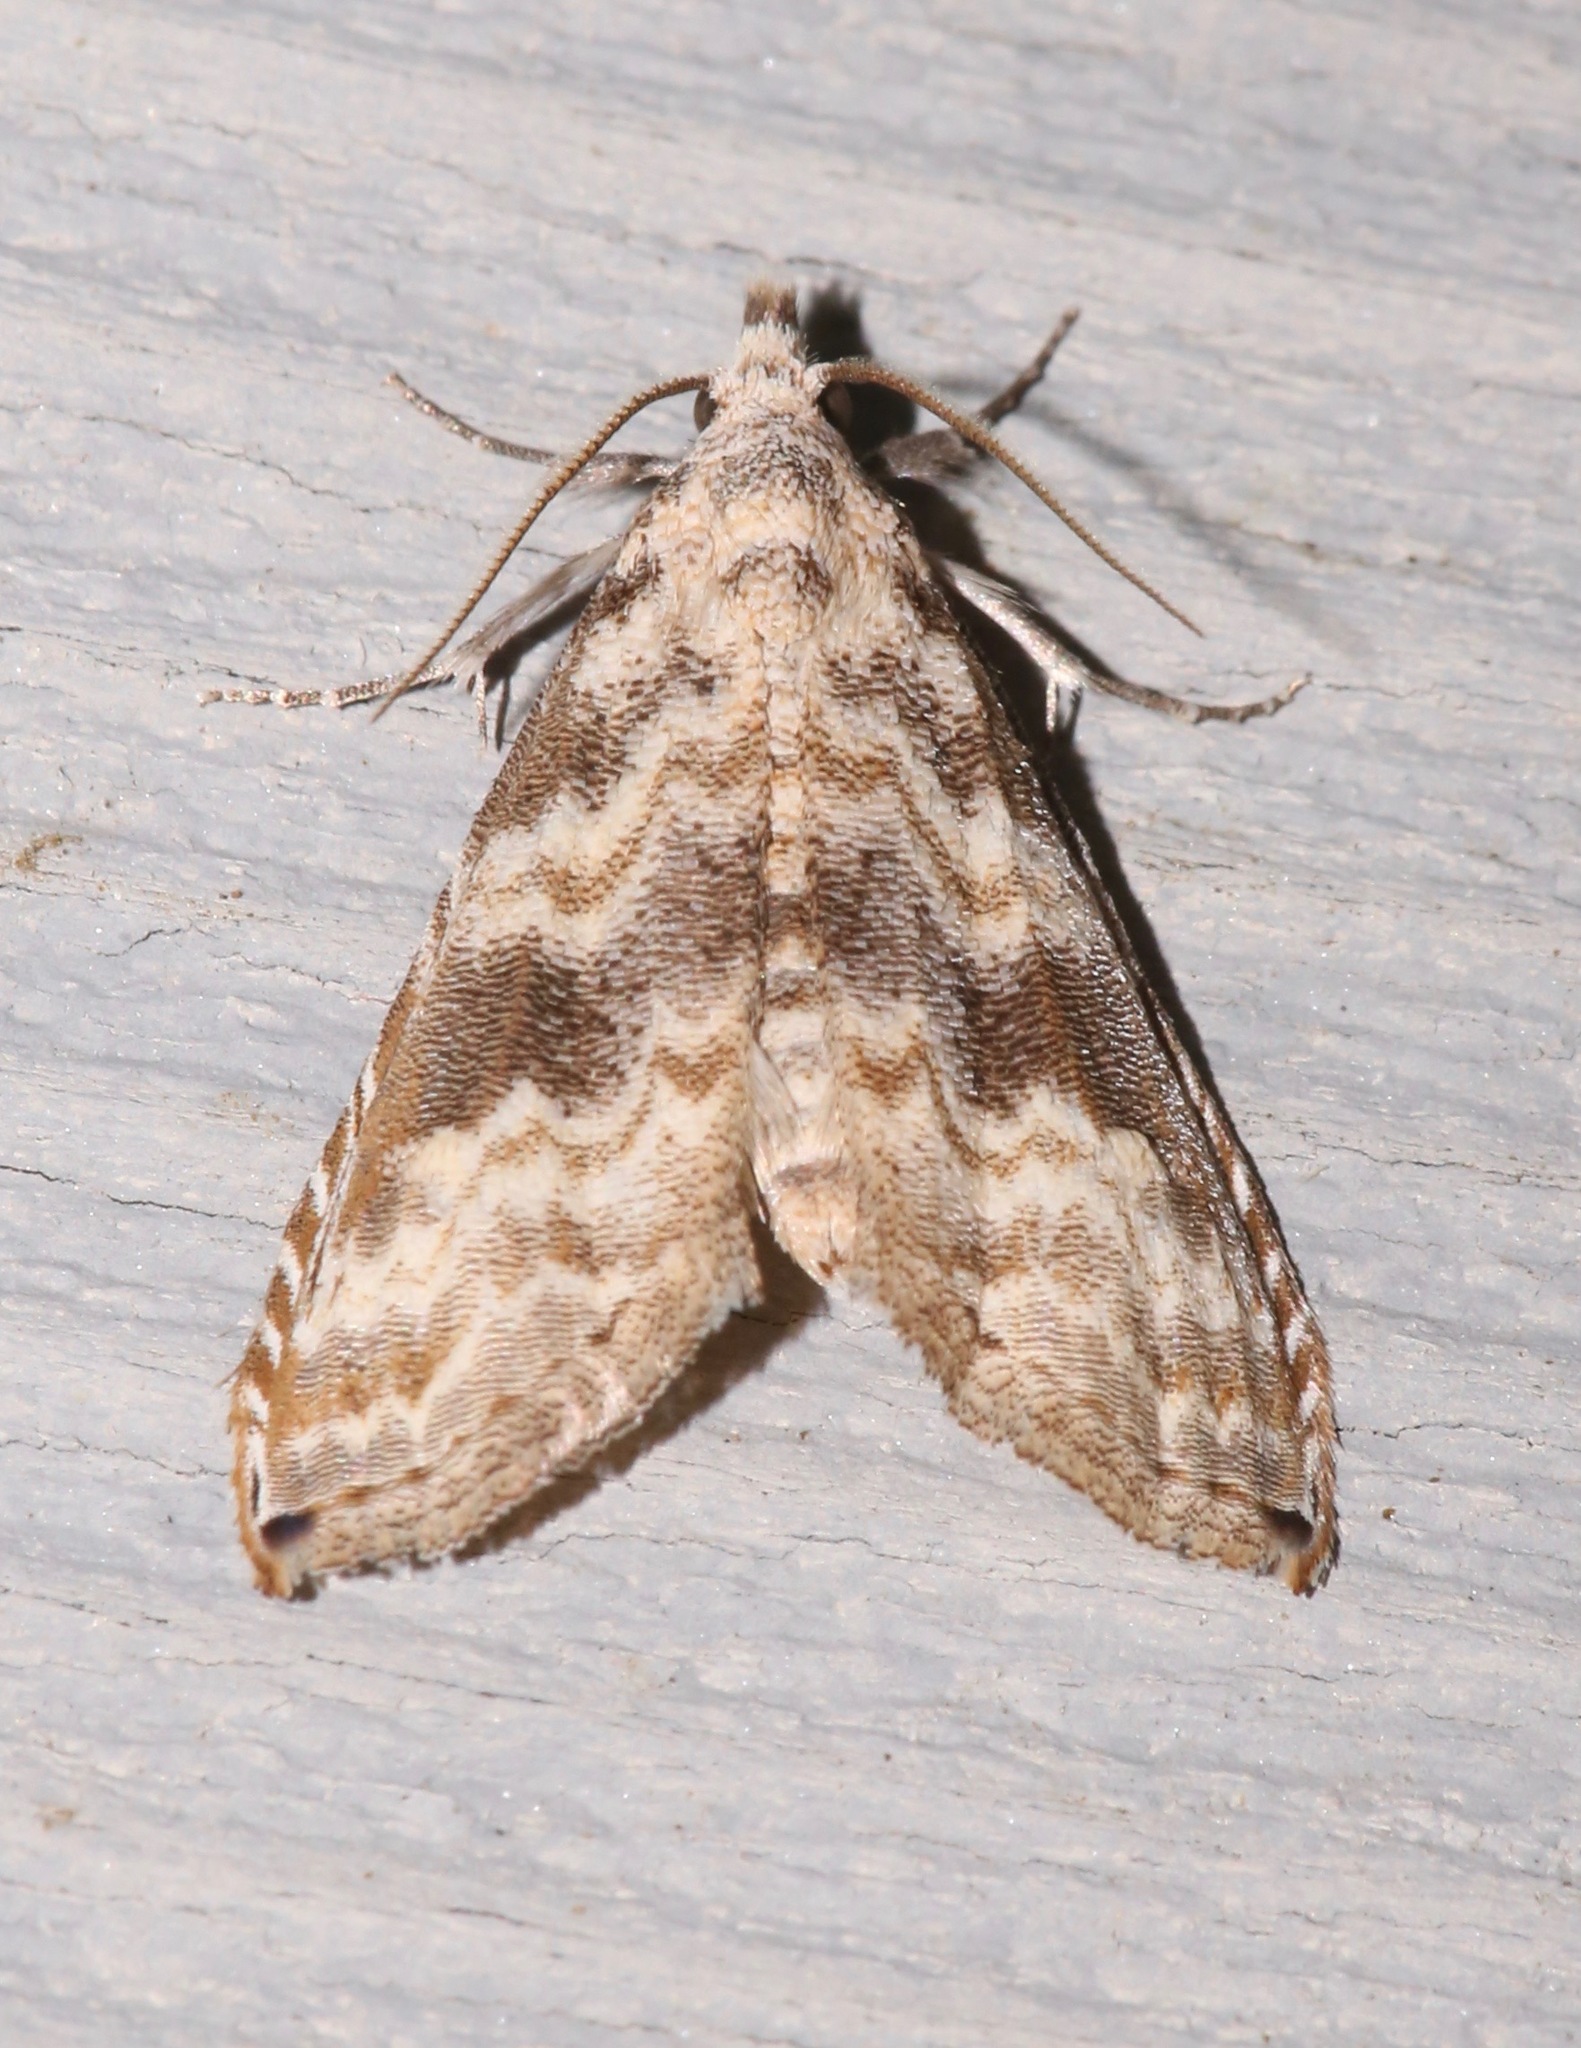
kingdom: Animalia
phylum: Arthropoda
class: Insecta
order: Lepidoptera
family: Noctuidae
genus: Phobolosia
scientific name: Phobolosia anfracta
